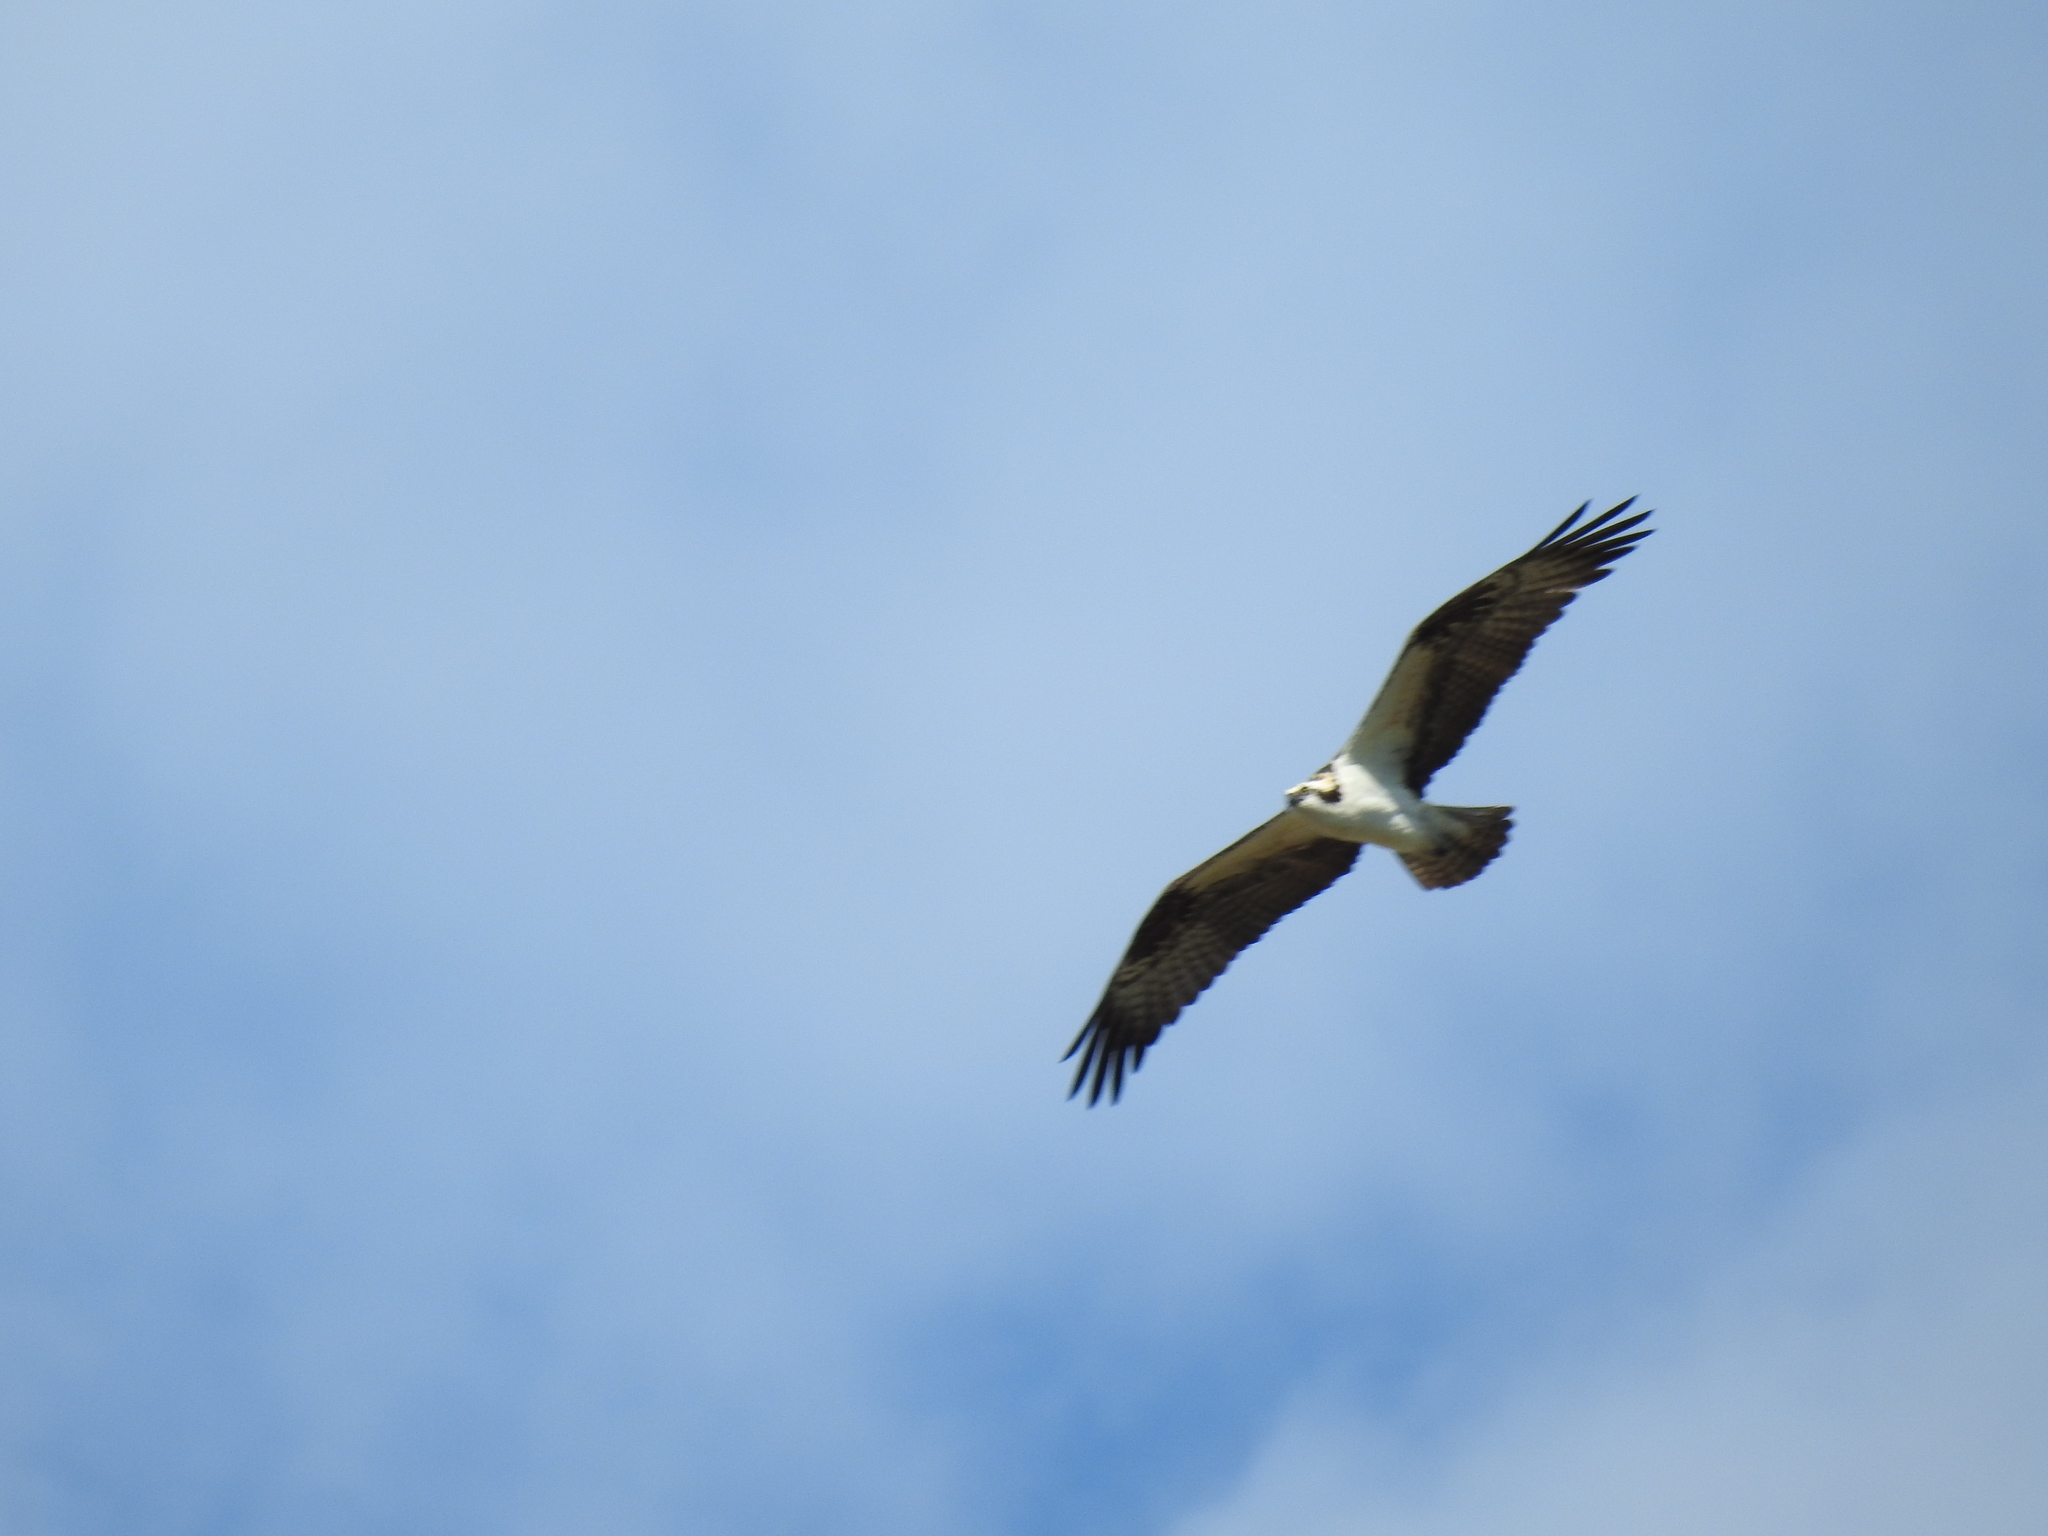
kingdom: Animalia
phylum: Chordata
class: Aves
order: Accipitriformes
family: Pandionidae
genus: Pandion
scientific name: Pandion haliaetus
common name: Osprey
